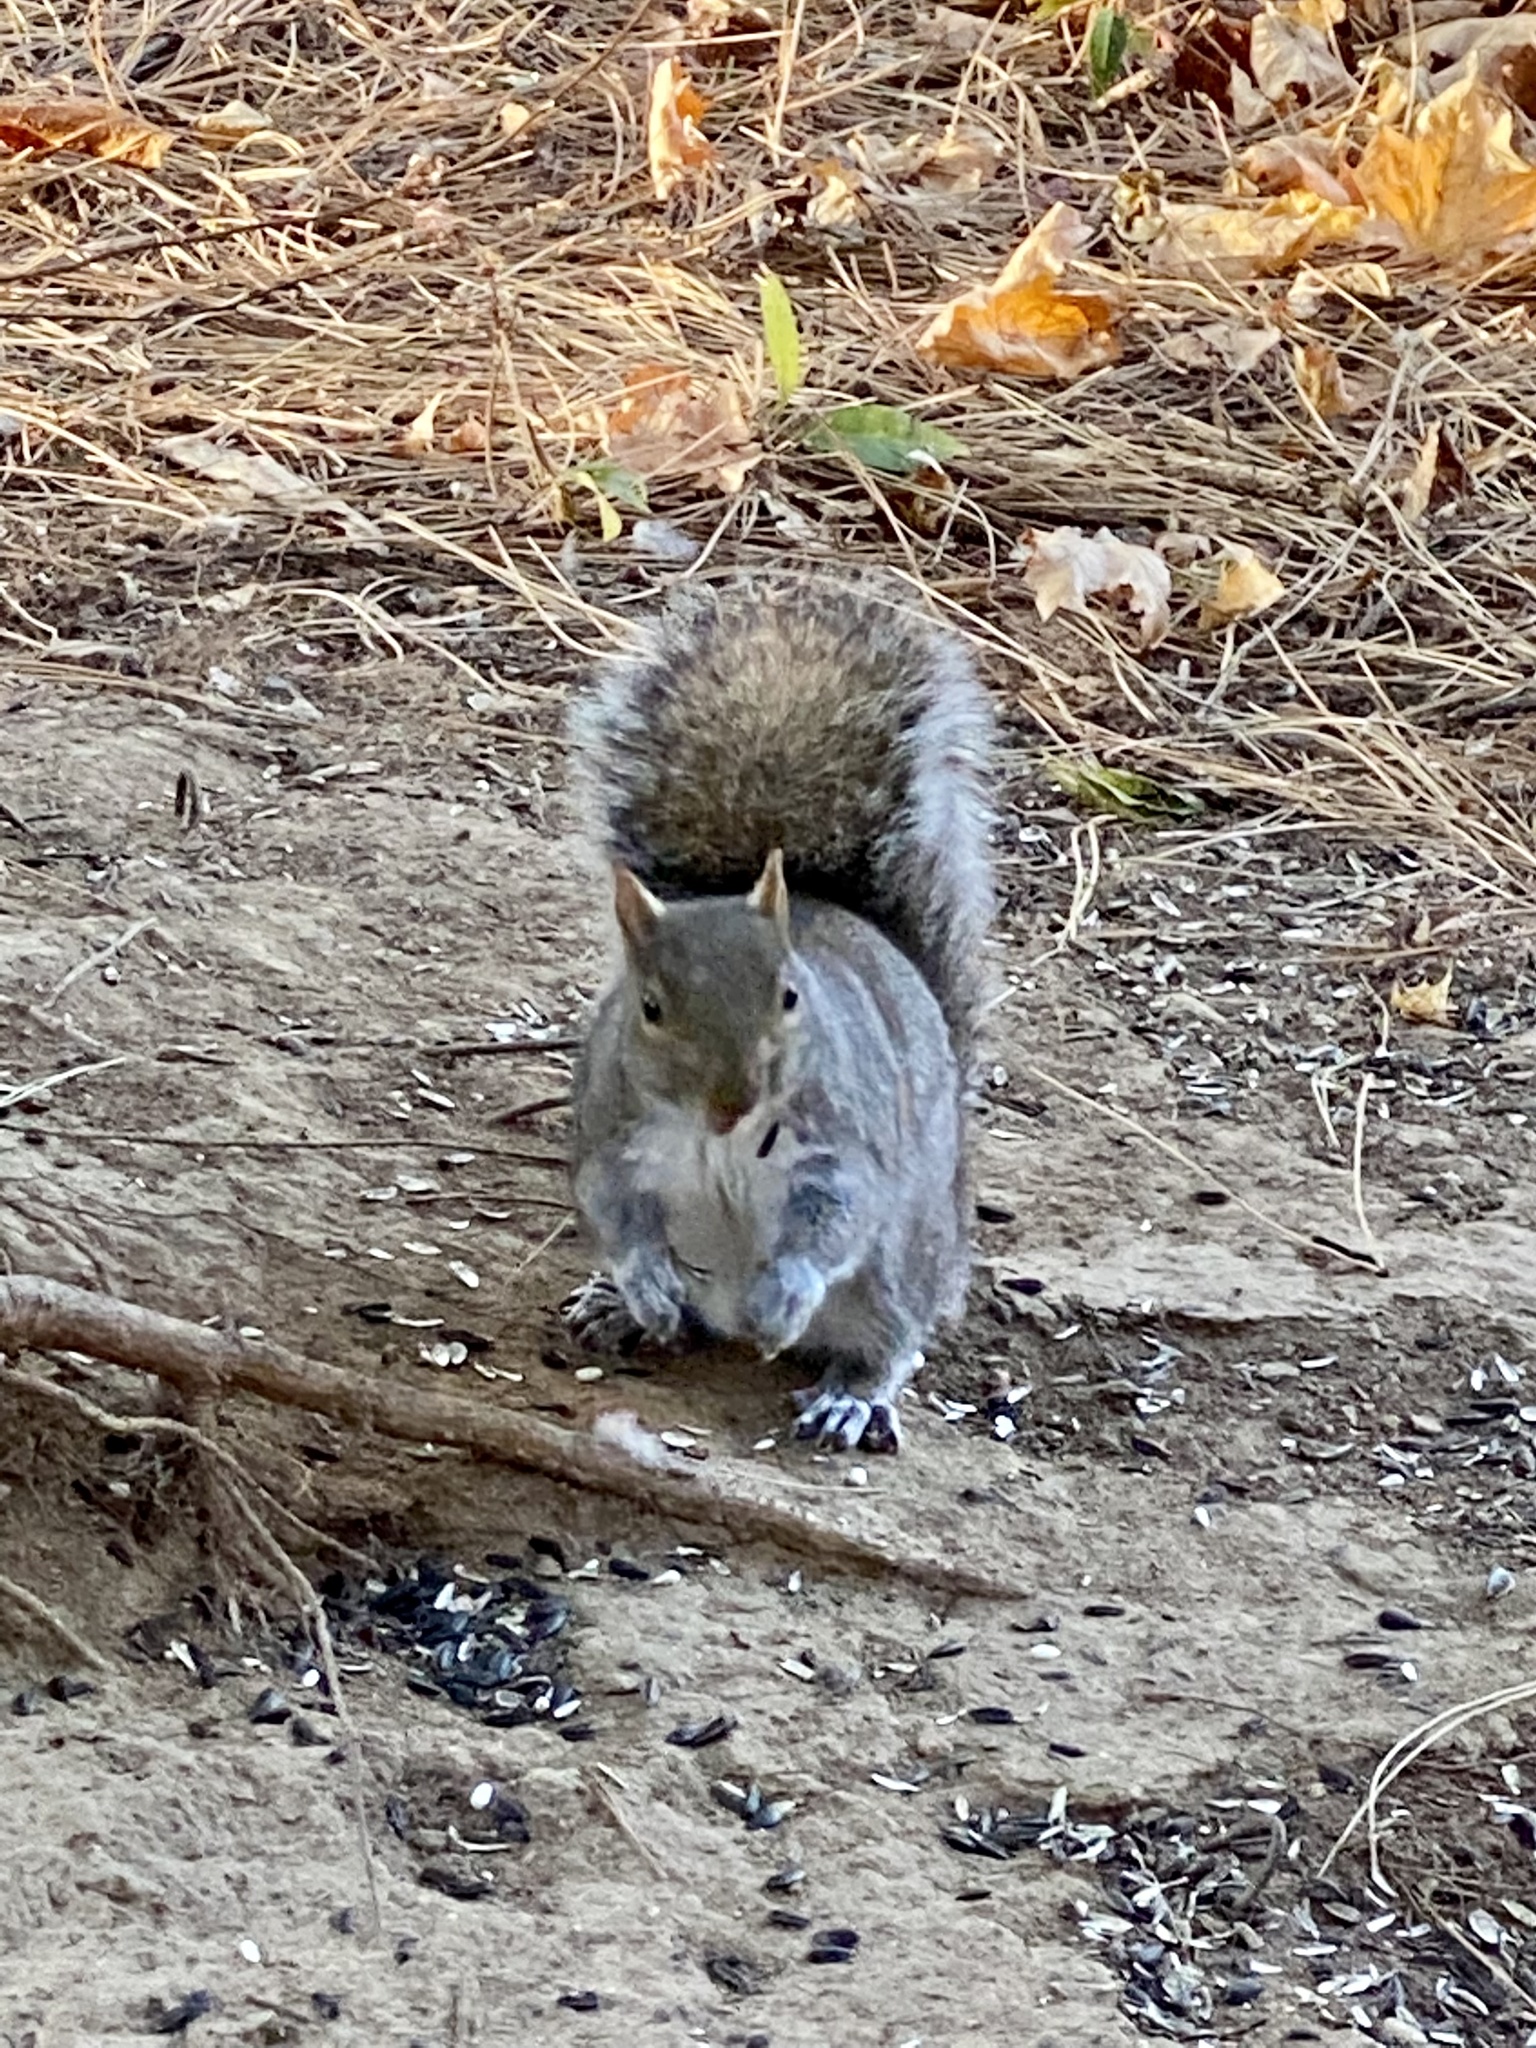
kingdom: Animalia
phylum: Chordata
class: Mammalia
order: Rodentia
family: Sciuridae
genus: Sciurus
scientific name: Sciurus carolinensis
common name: Eastern gray squirrel
